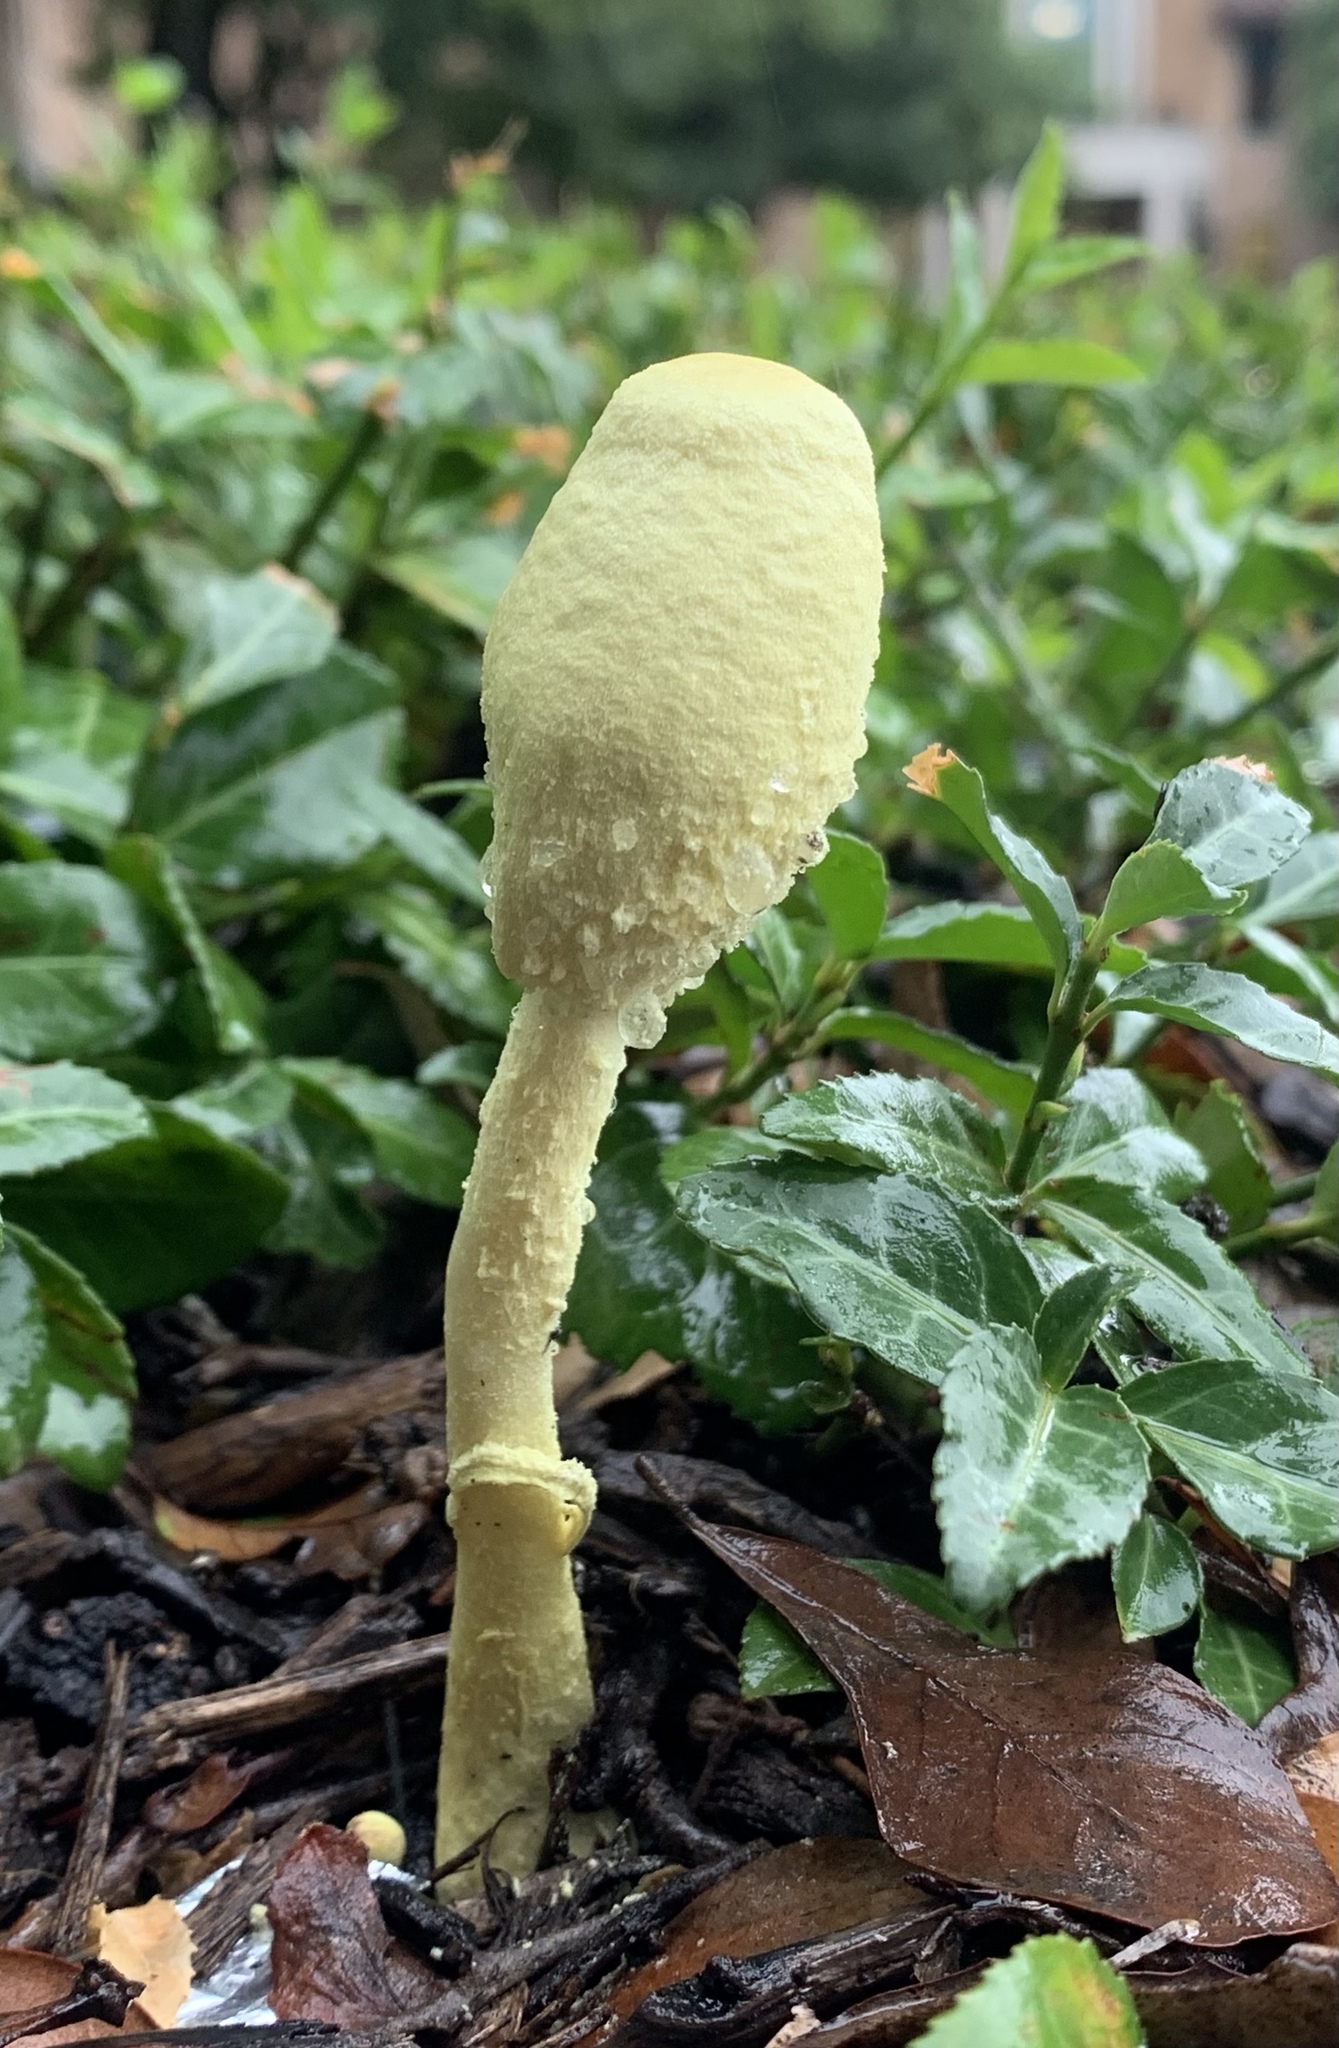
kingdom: Fungi
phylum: Basidiomycota
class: Agaricomycetes
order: Agaricales
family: Agaricaceae
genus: Leucocoprinus
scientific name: Leucocoprinus birnbaumii
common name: Plantpot dapperling
